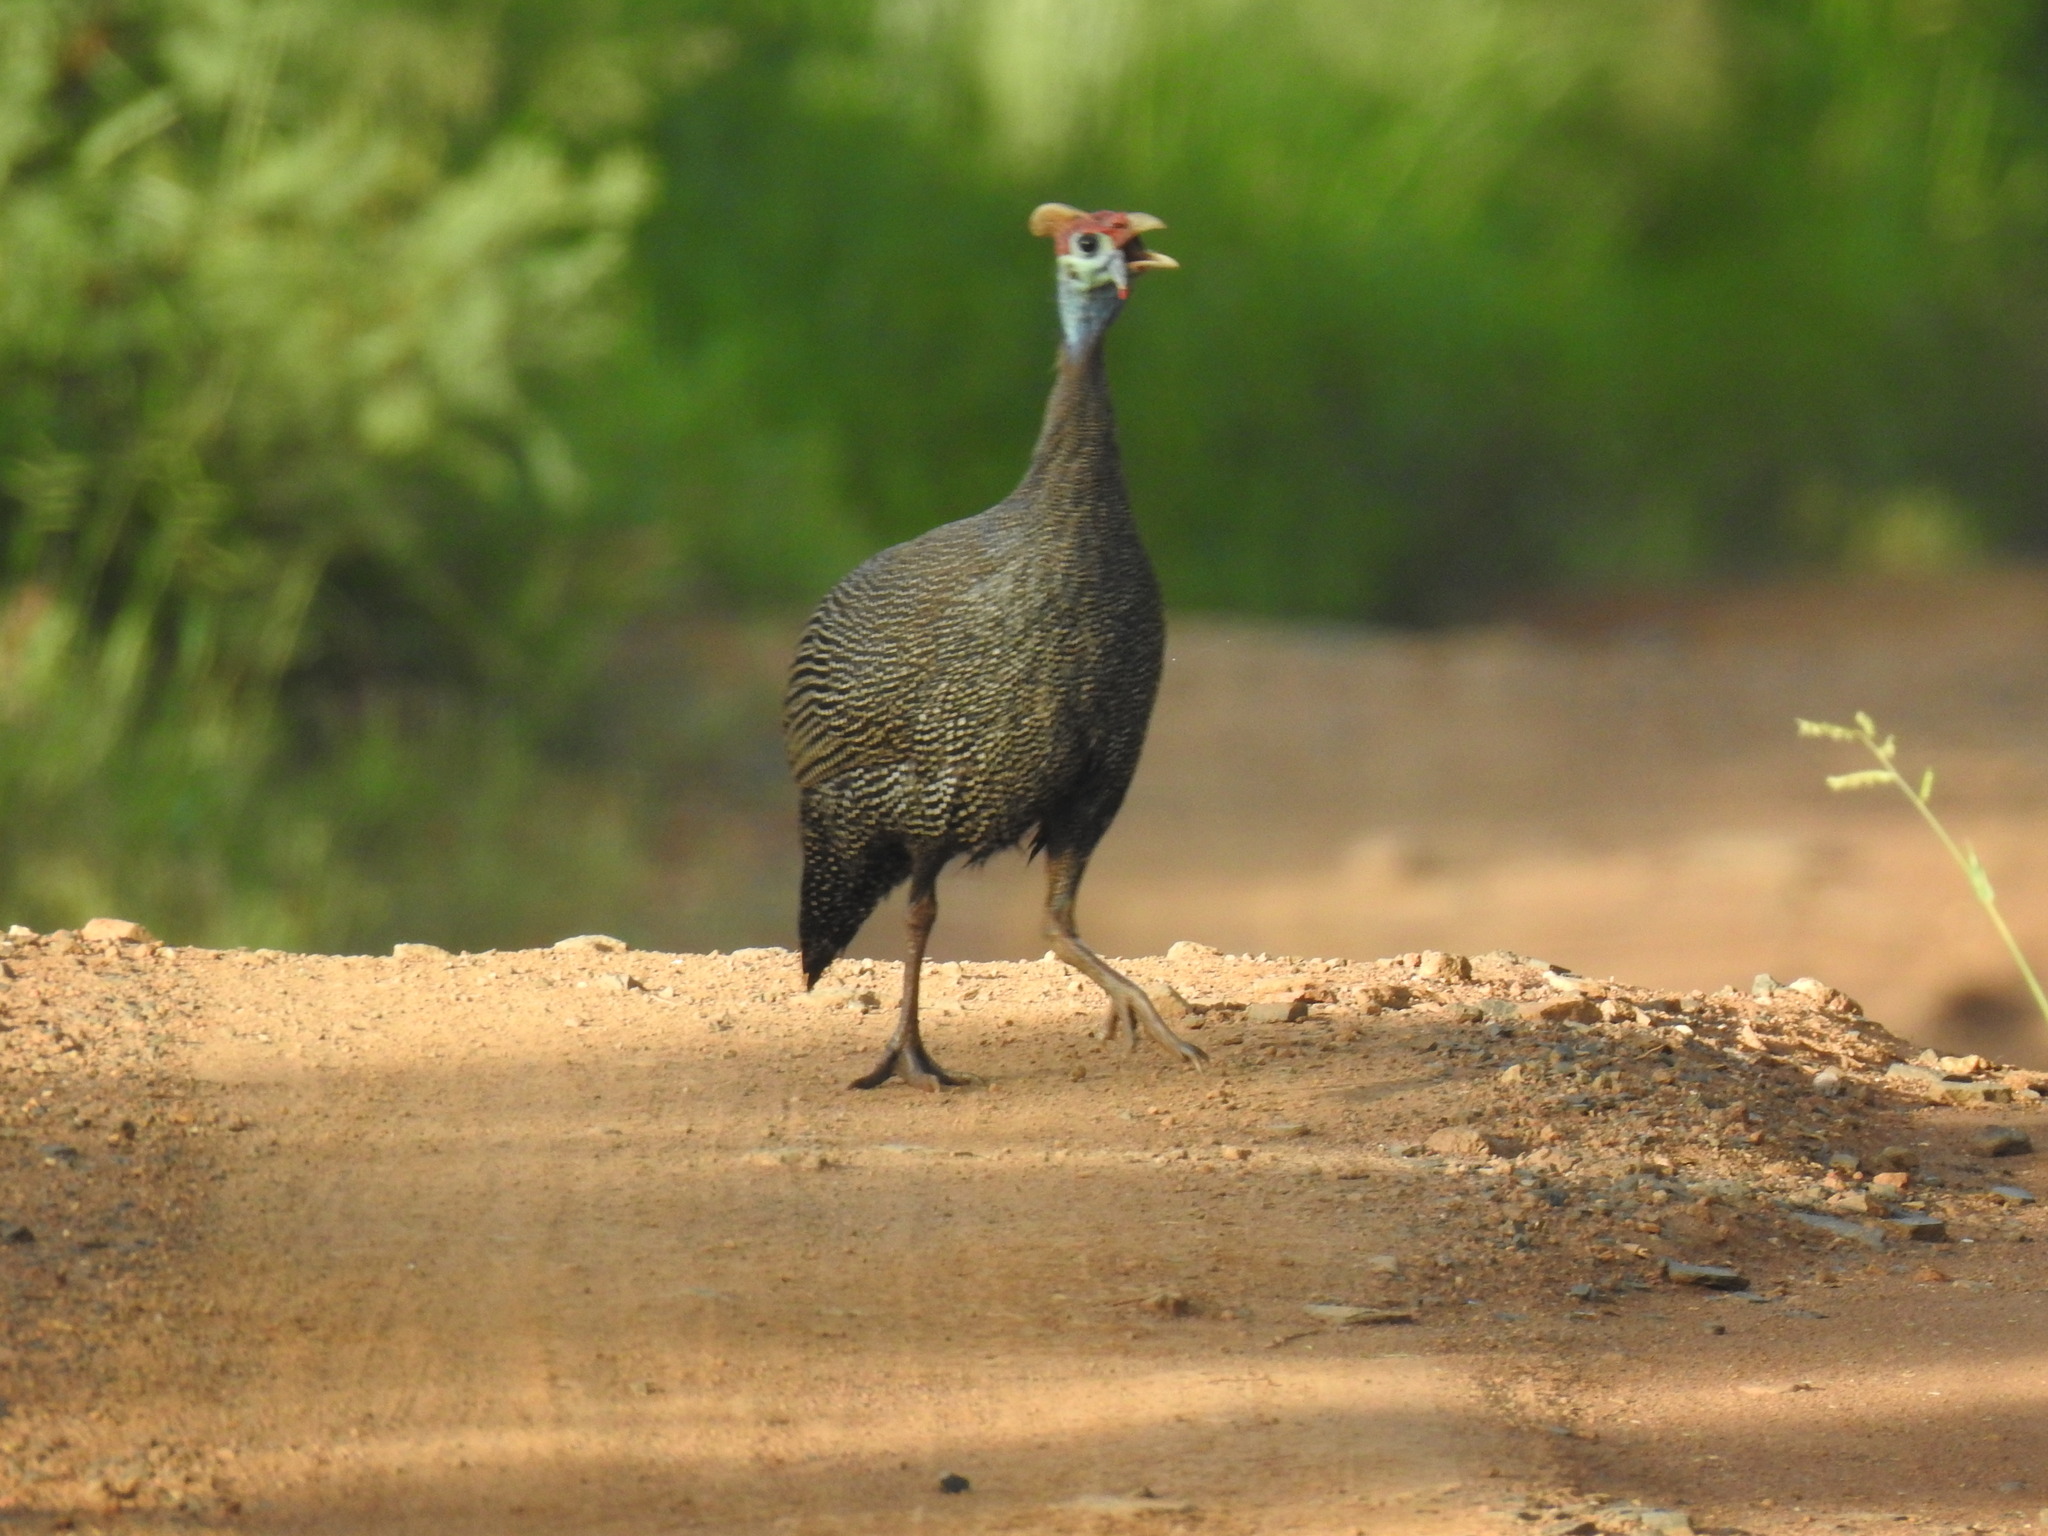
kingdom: Animalia
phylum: Chordata
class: Aves
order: Galliformes
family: Numididae
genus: Numida
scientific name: Numida meleagris
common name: Helmeted guineafowl
